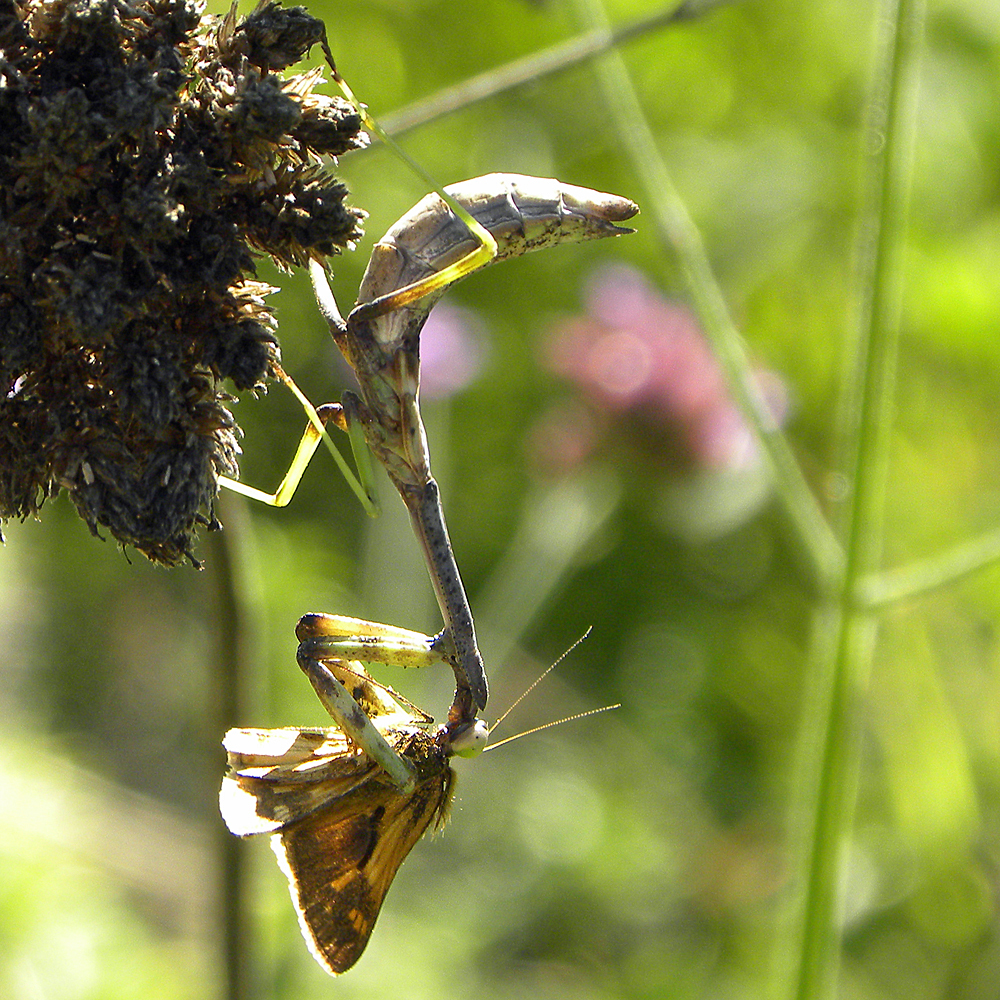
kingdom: Animalia
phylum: Arthropoda
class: Insecta
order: Mantodea
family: Mantidae
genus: Stagmomantis
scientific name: Stagmomantis carolina
